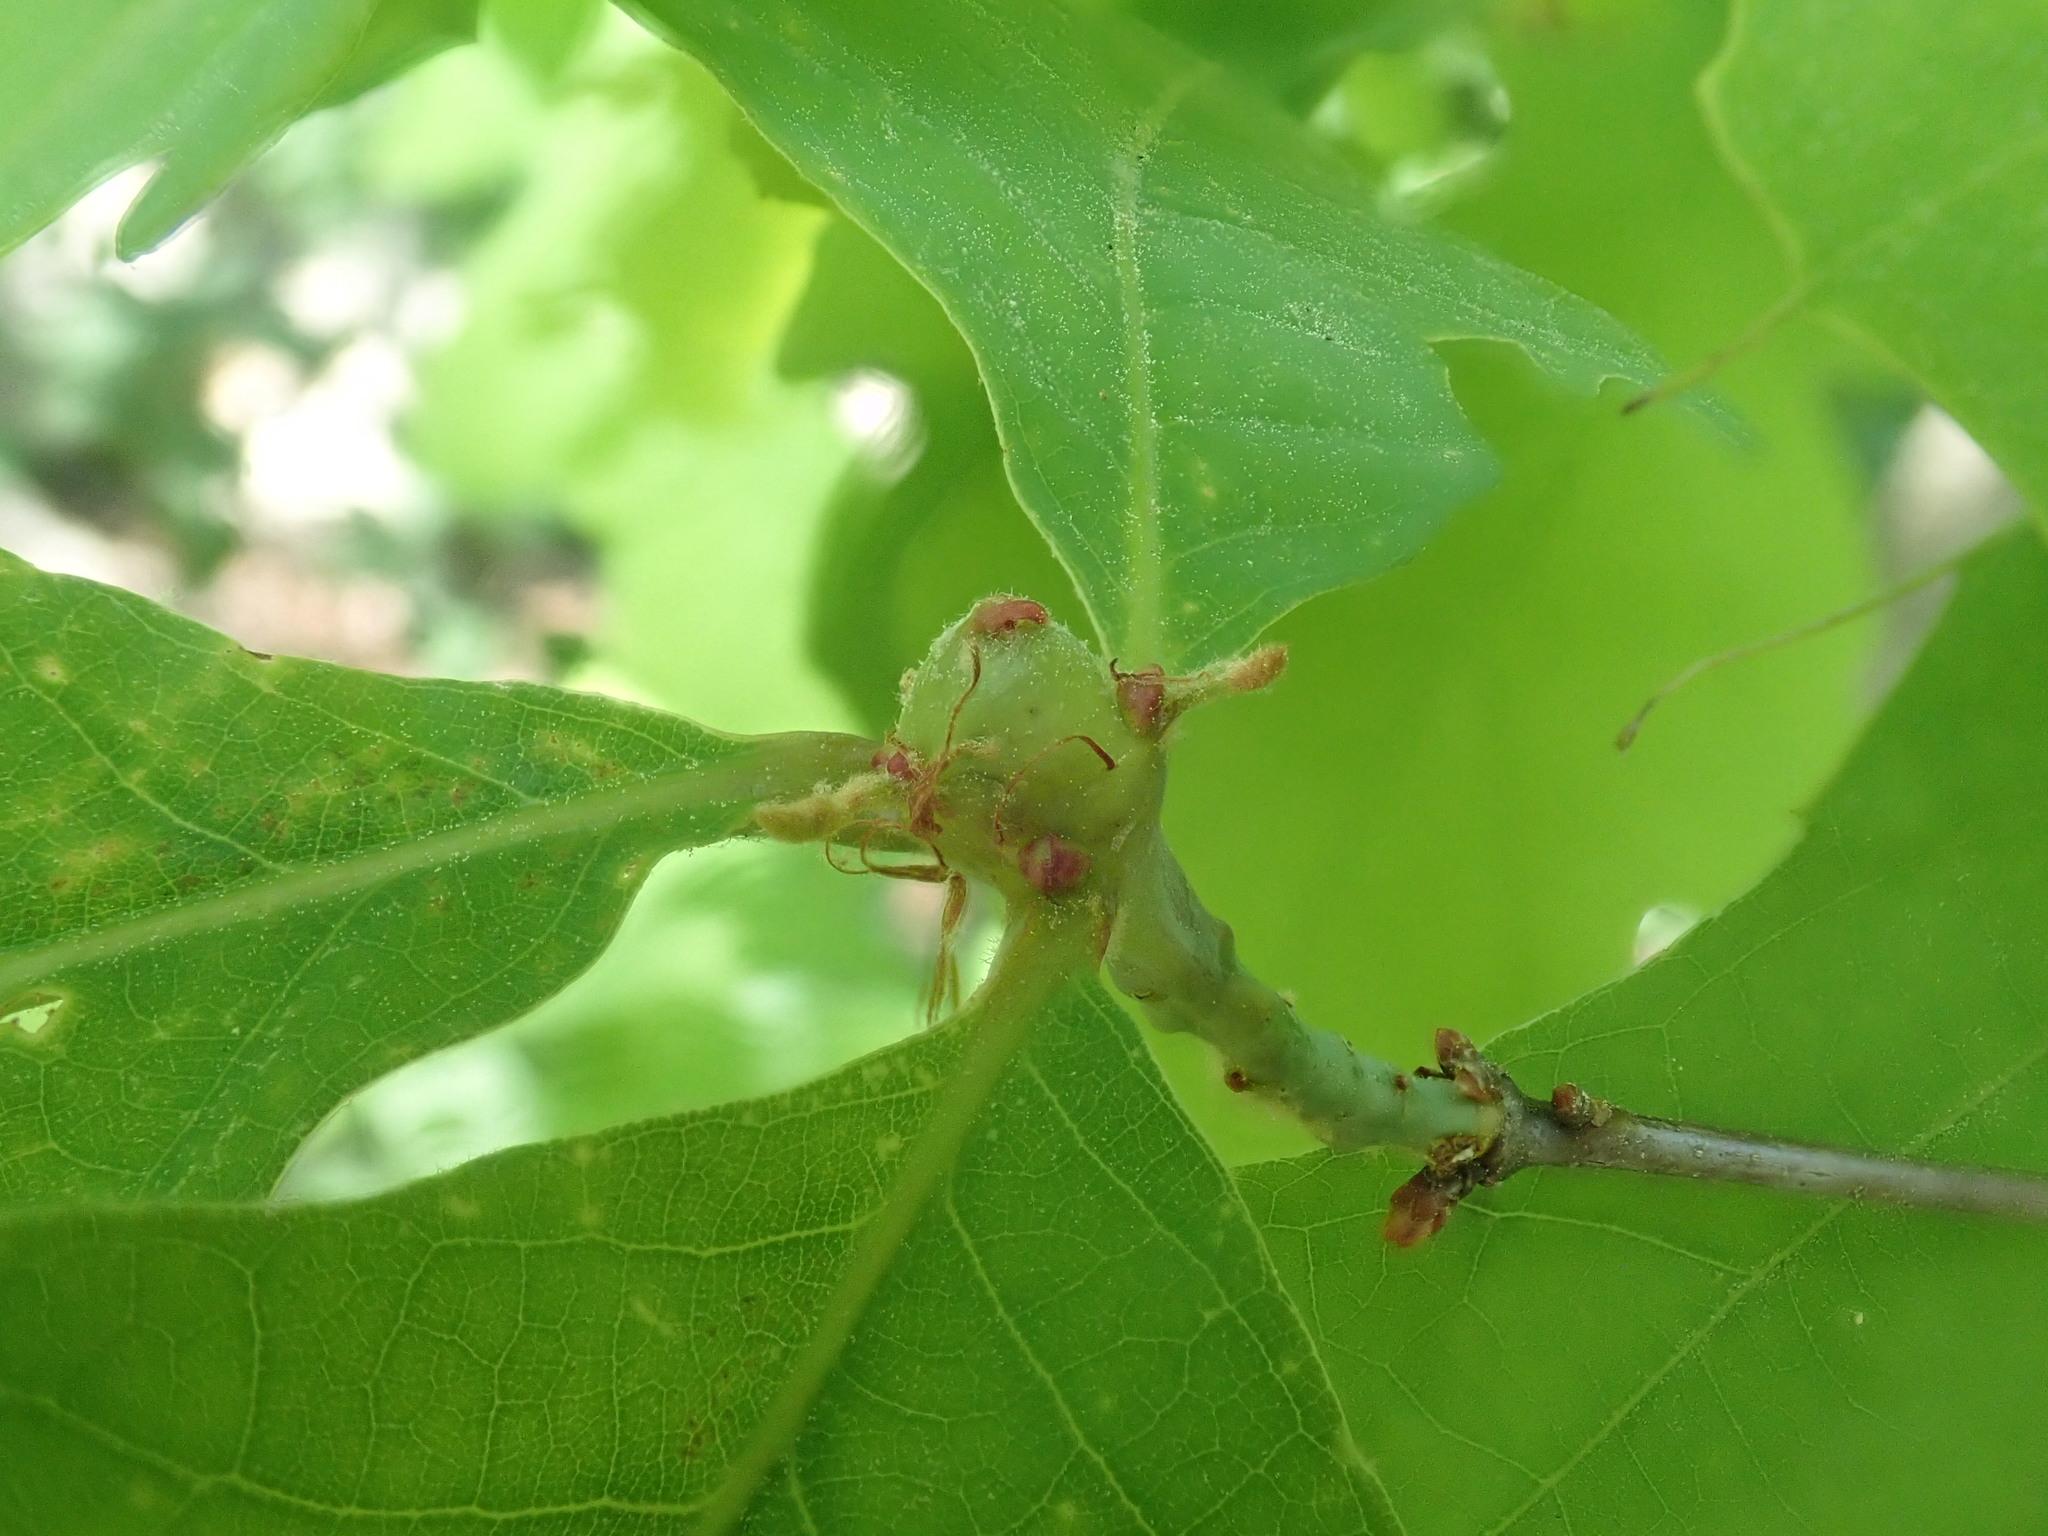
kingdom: Animalia
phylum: Arthropoda
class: Insecta
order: Hymenoptera
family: Cynipidae
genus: Callirhytis
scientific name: Callirhytis clavula
